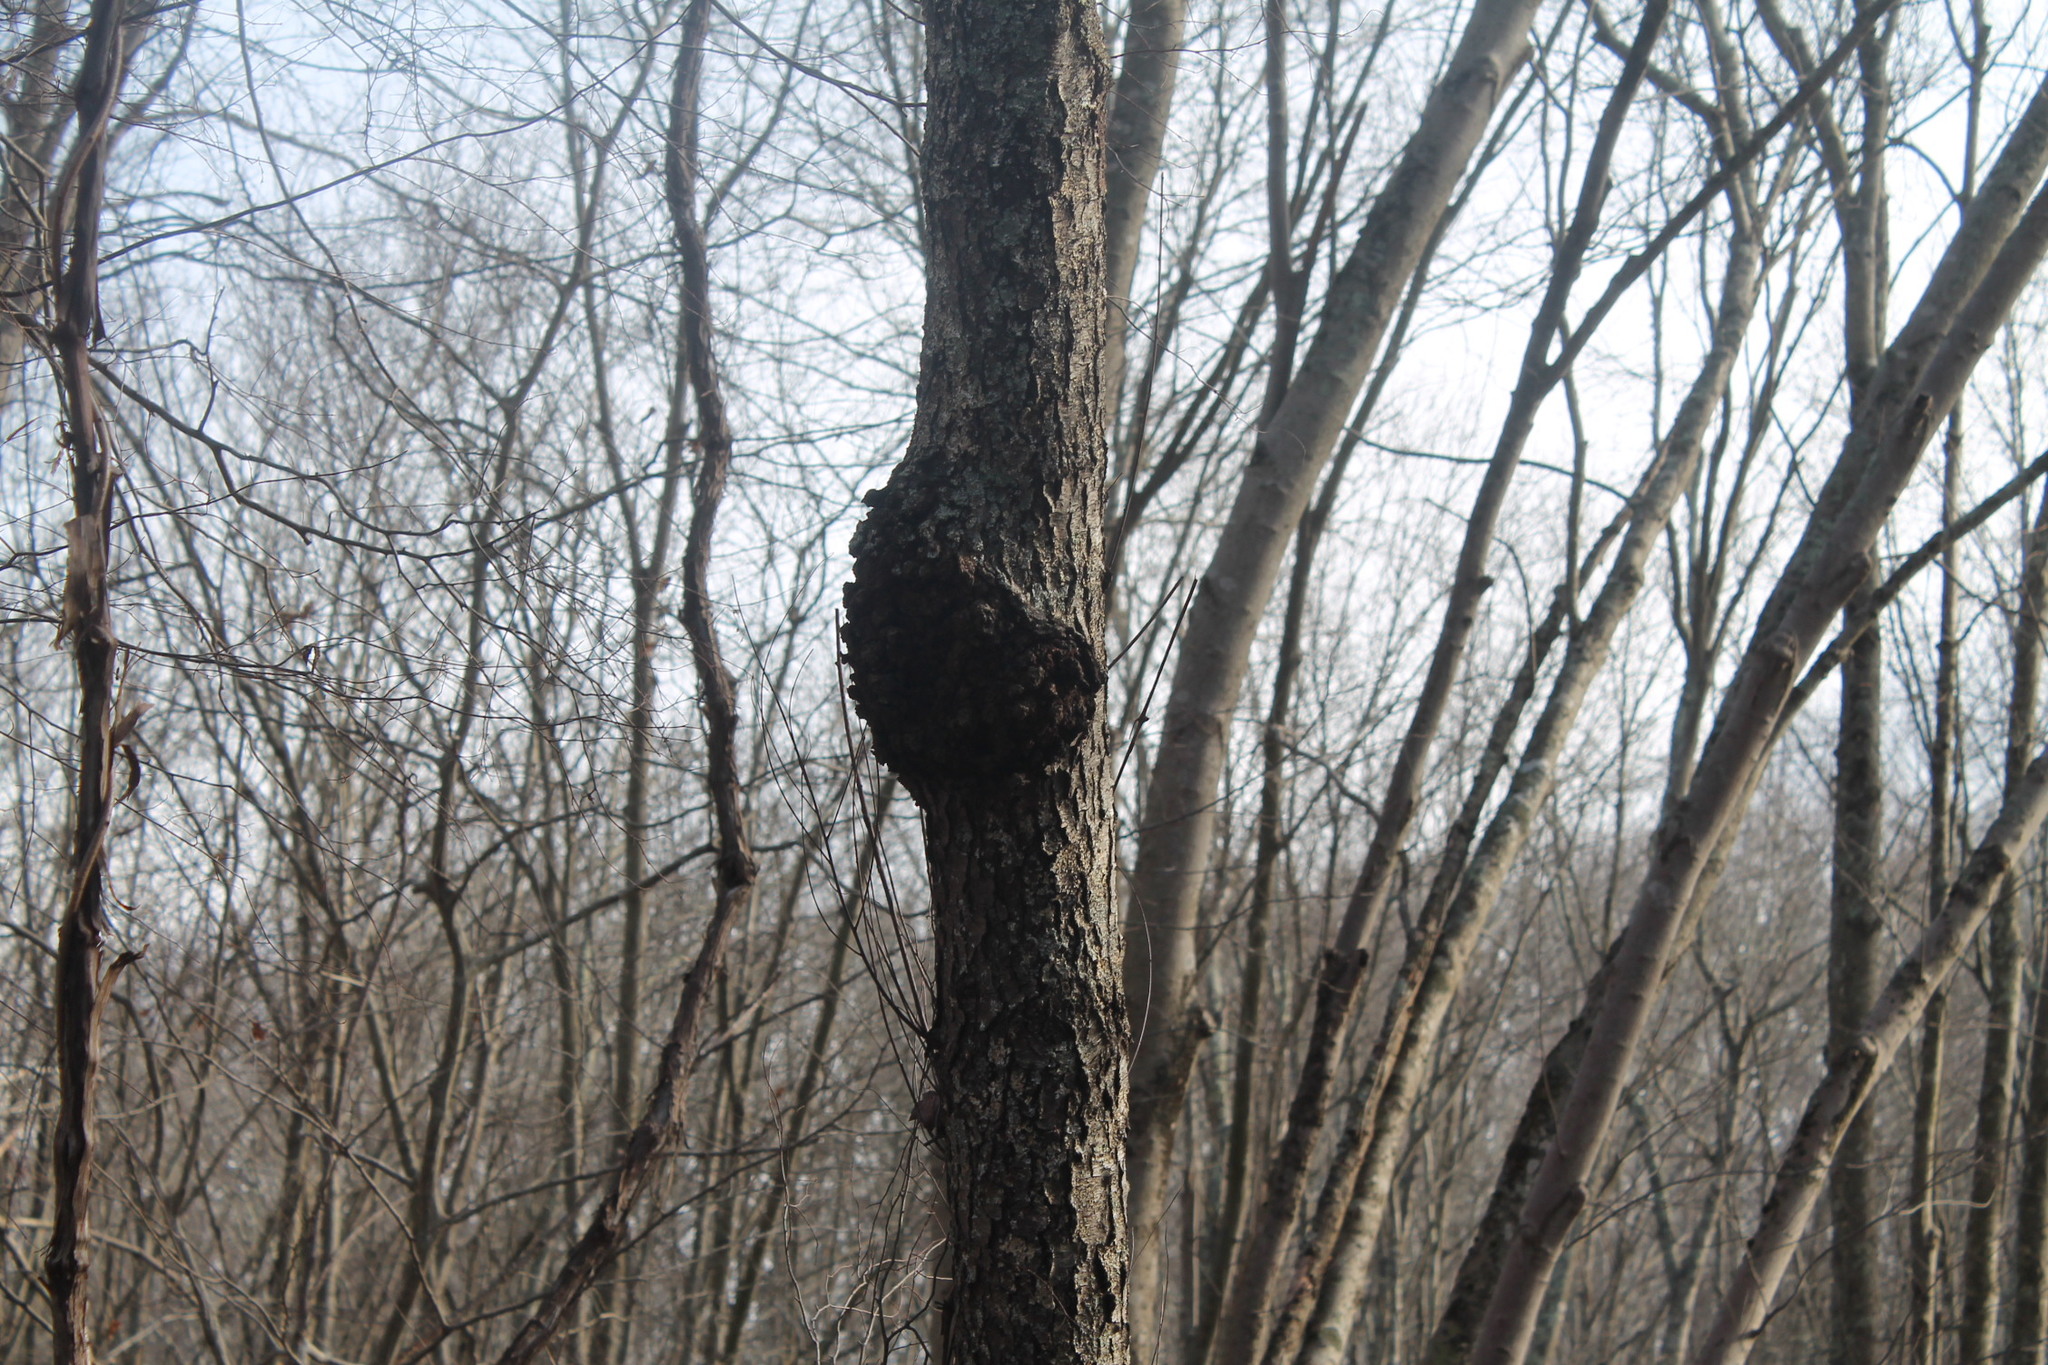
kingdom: Bacteria
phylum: Proteobacteria
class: Alphaproteobacteria
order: Rhizobiales
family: Rhizobiaceae
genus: Rhizobium
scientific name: Rhizobium Agrobacterium radiobacter
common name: Bacterial crown gall
